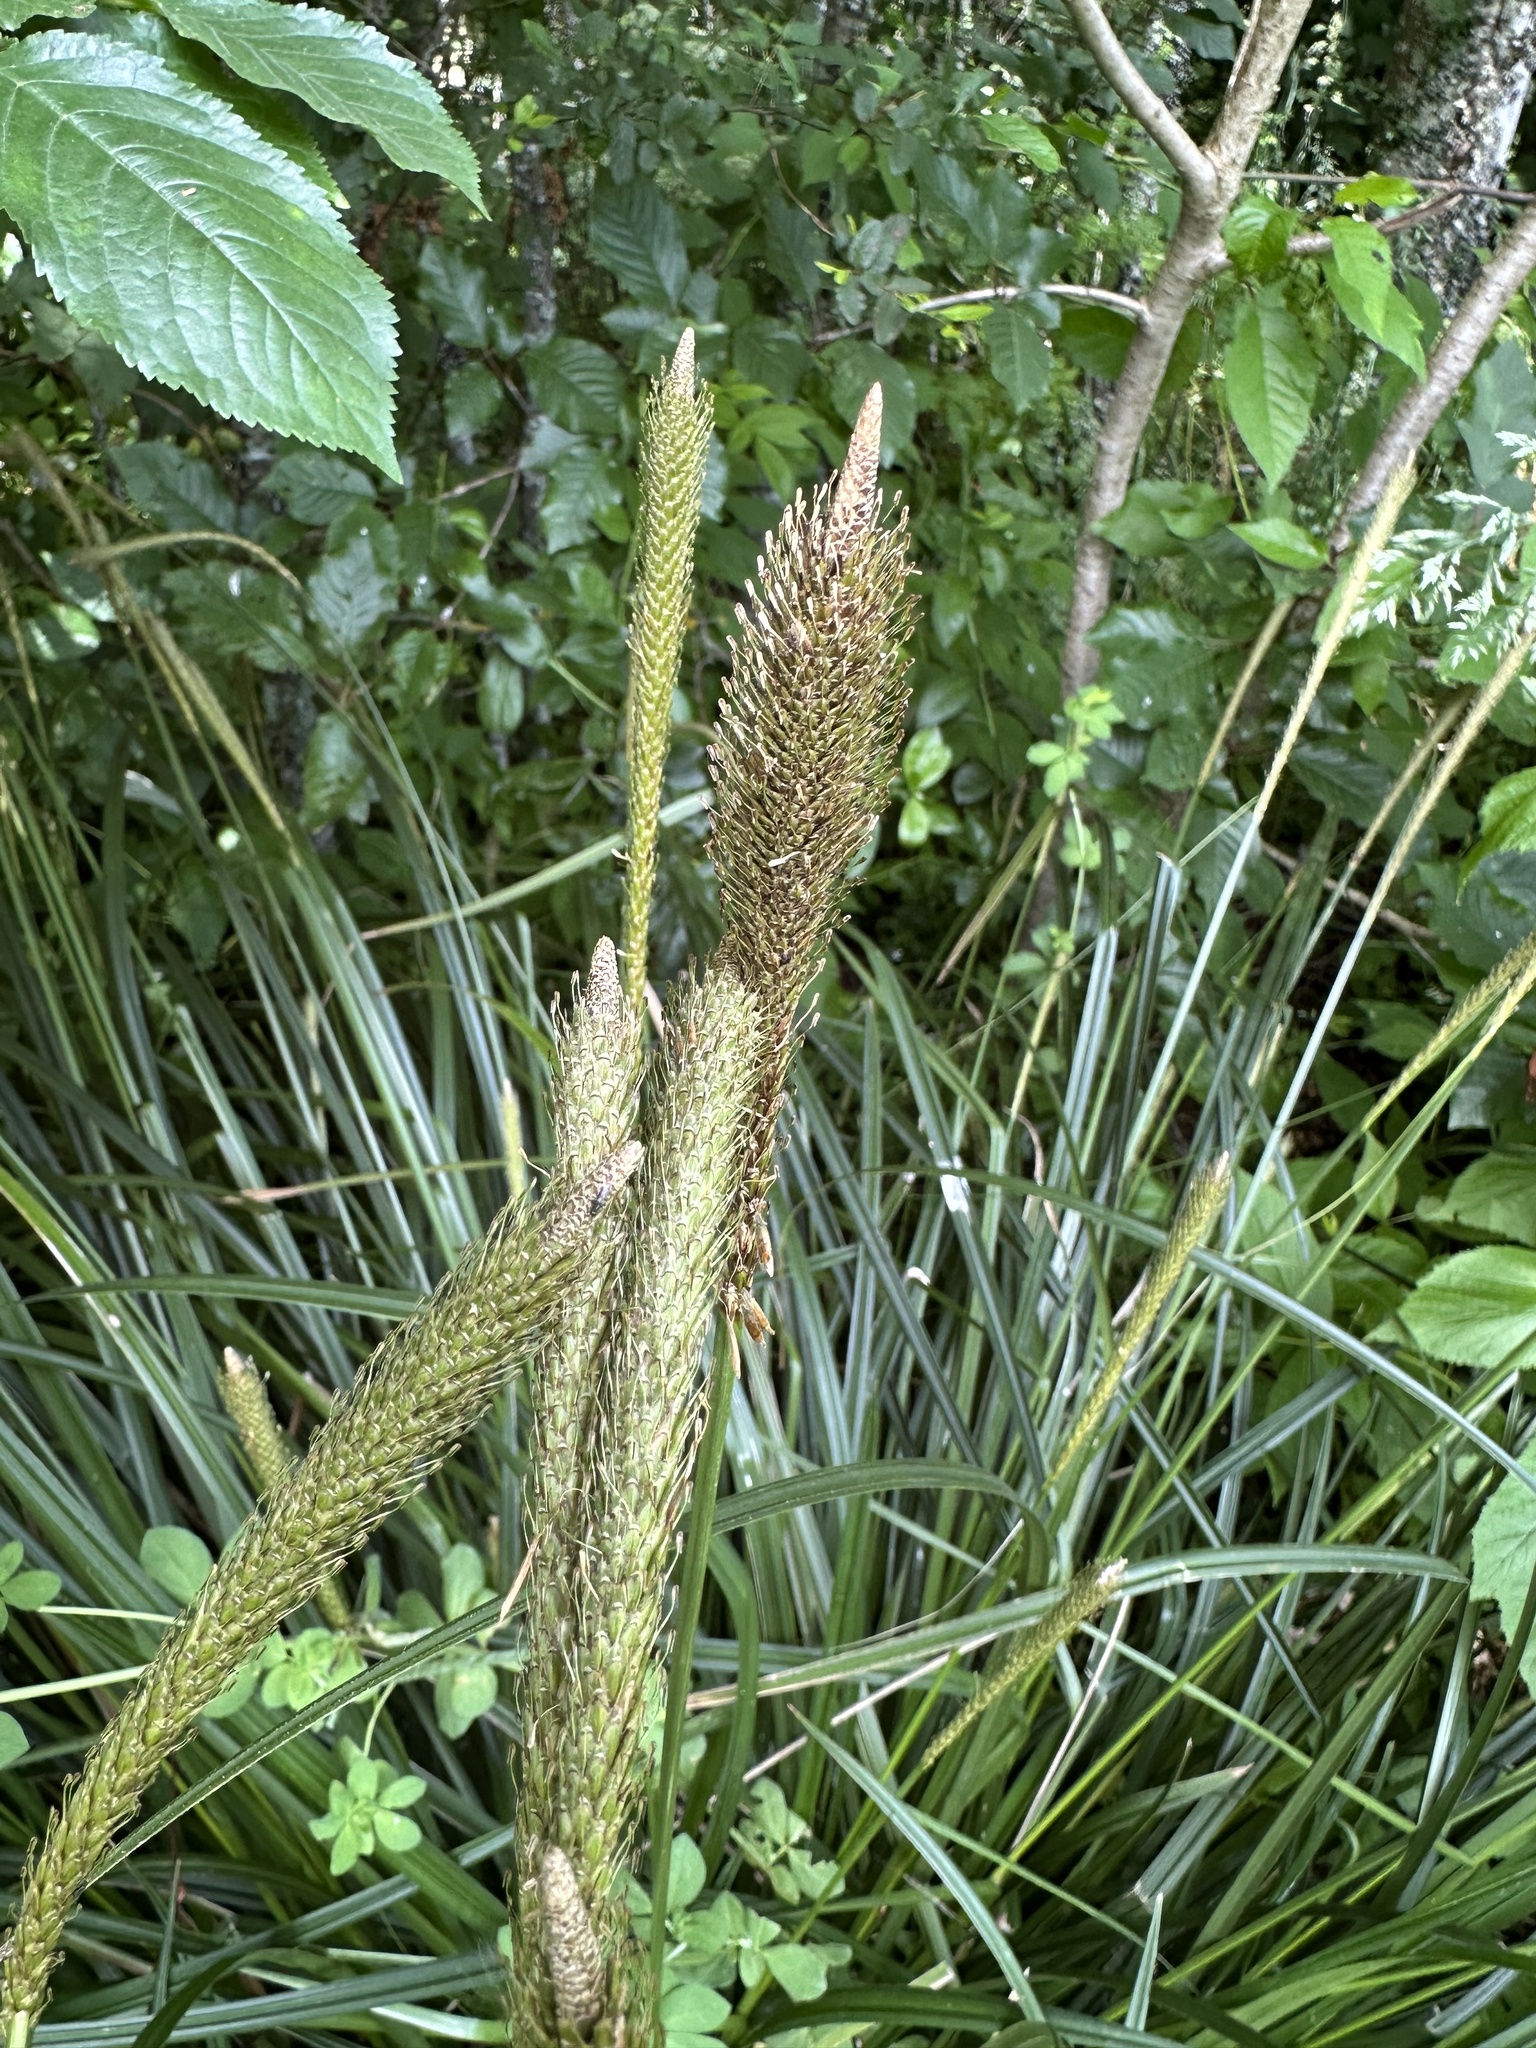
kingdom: Plantae
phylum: Tracheophyta
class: Liliopsida
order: Poales
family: Cyperaceae
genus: Carex
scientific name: Carex phleoides
